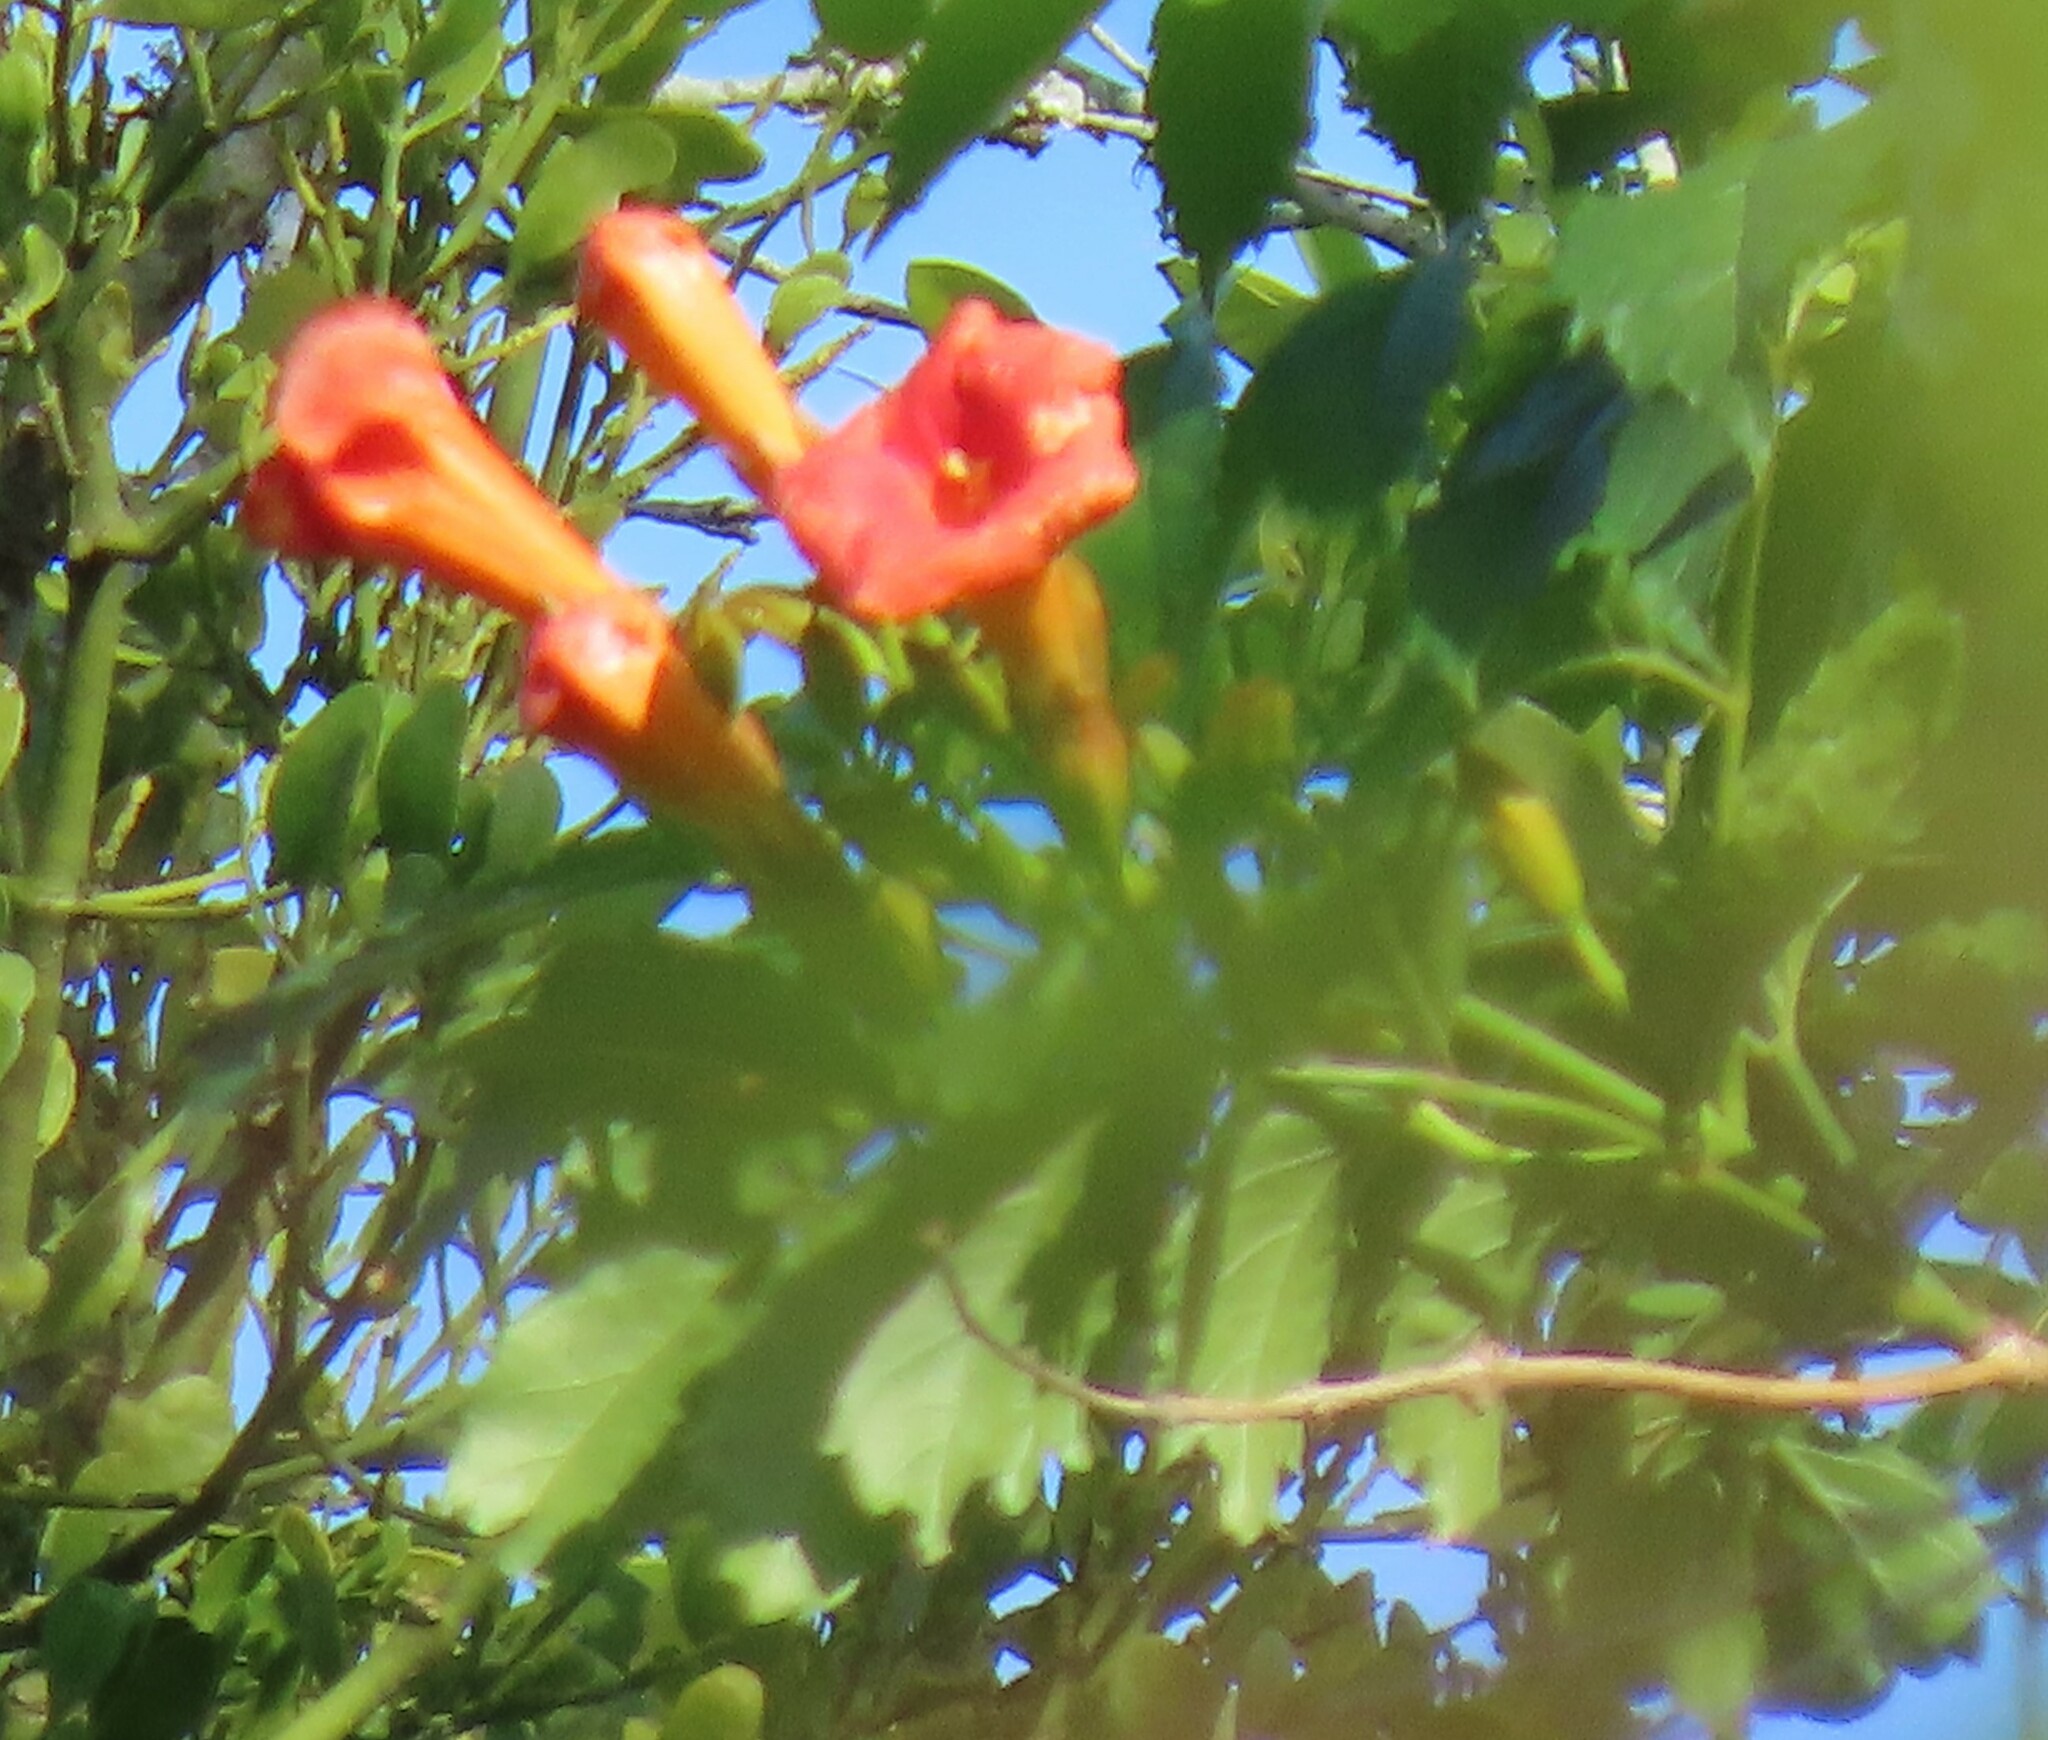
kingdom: Plantae
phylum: Tracheophyta
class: Magnoliopsida
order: Lamiales
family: Bignoniaceae
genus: Campsis
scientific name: Campsis radicans
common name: Trumpet-creeper
